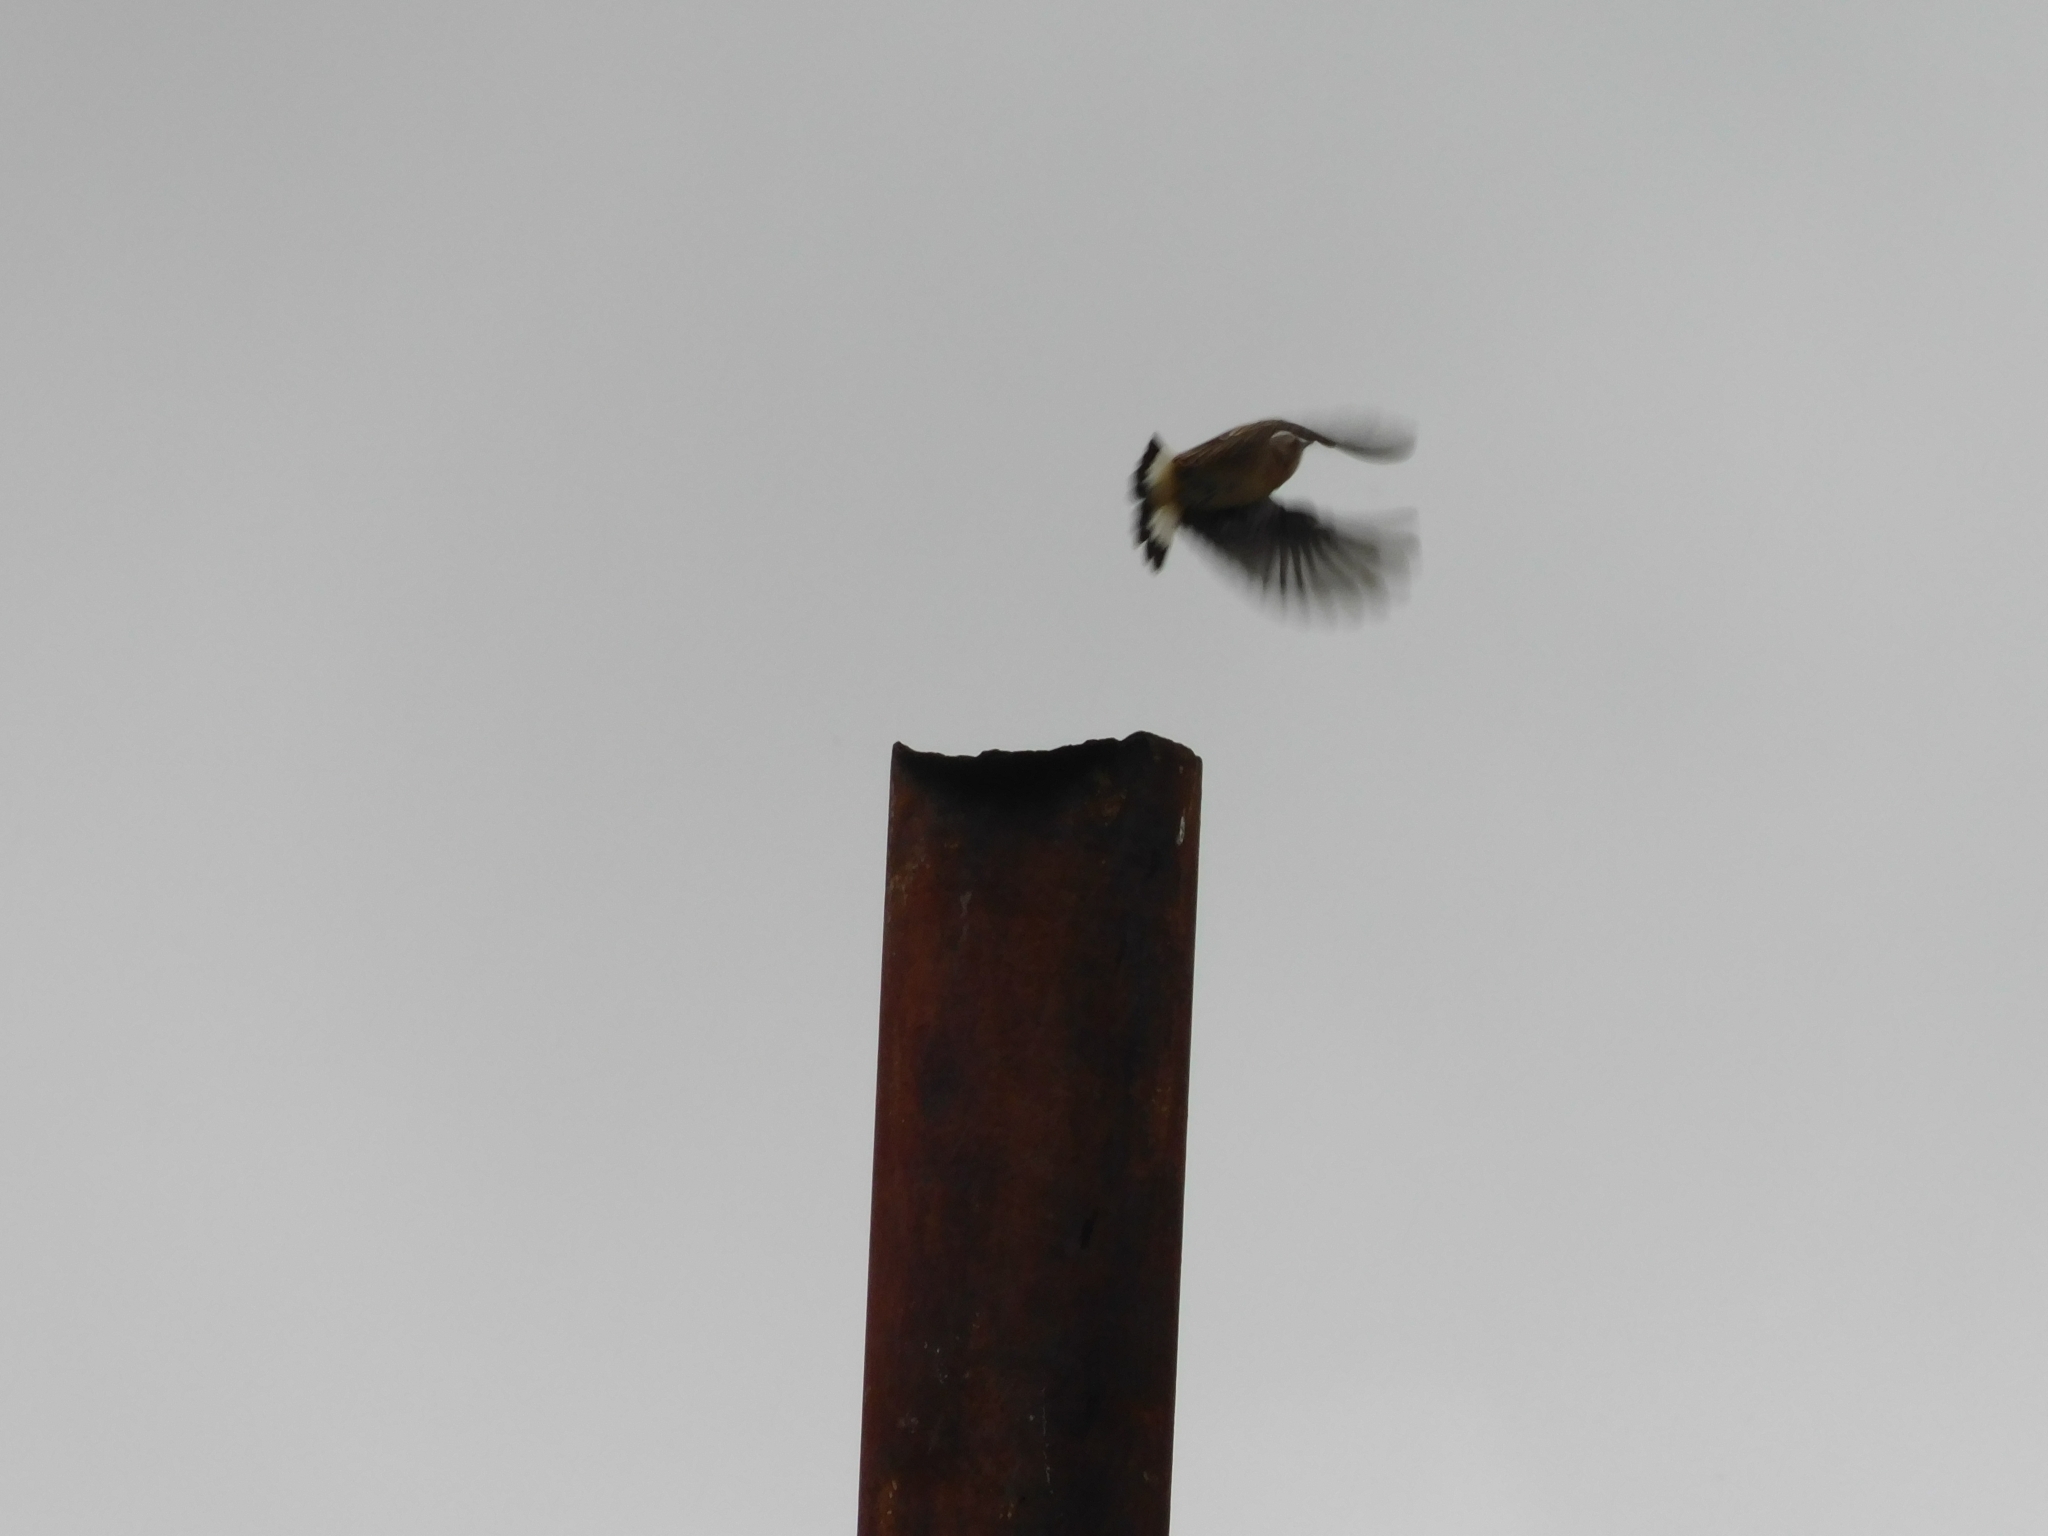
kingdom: Animalia
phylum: Chordata
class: Aves
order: Passeriformes
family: Muscicapidae
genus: Oenanthe
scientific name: Oenanthe oenanthe
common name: Northern wheatear
